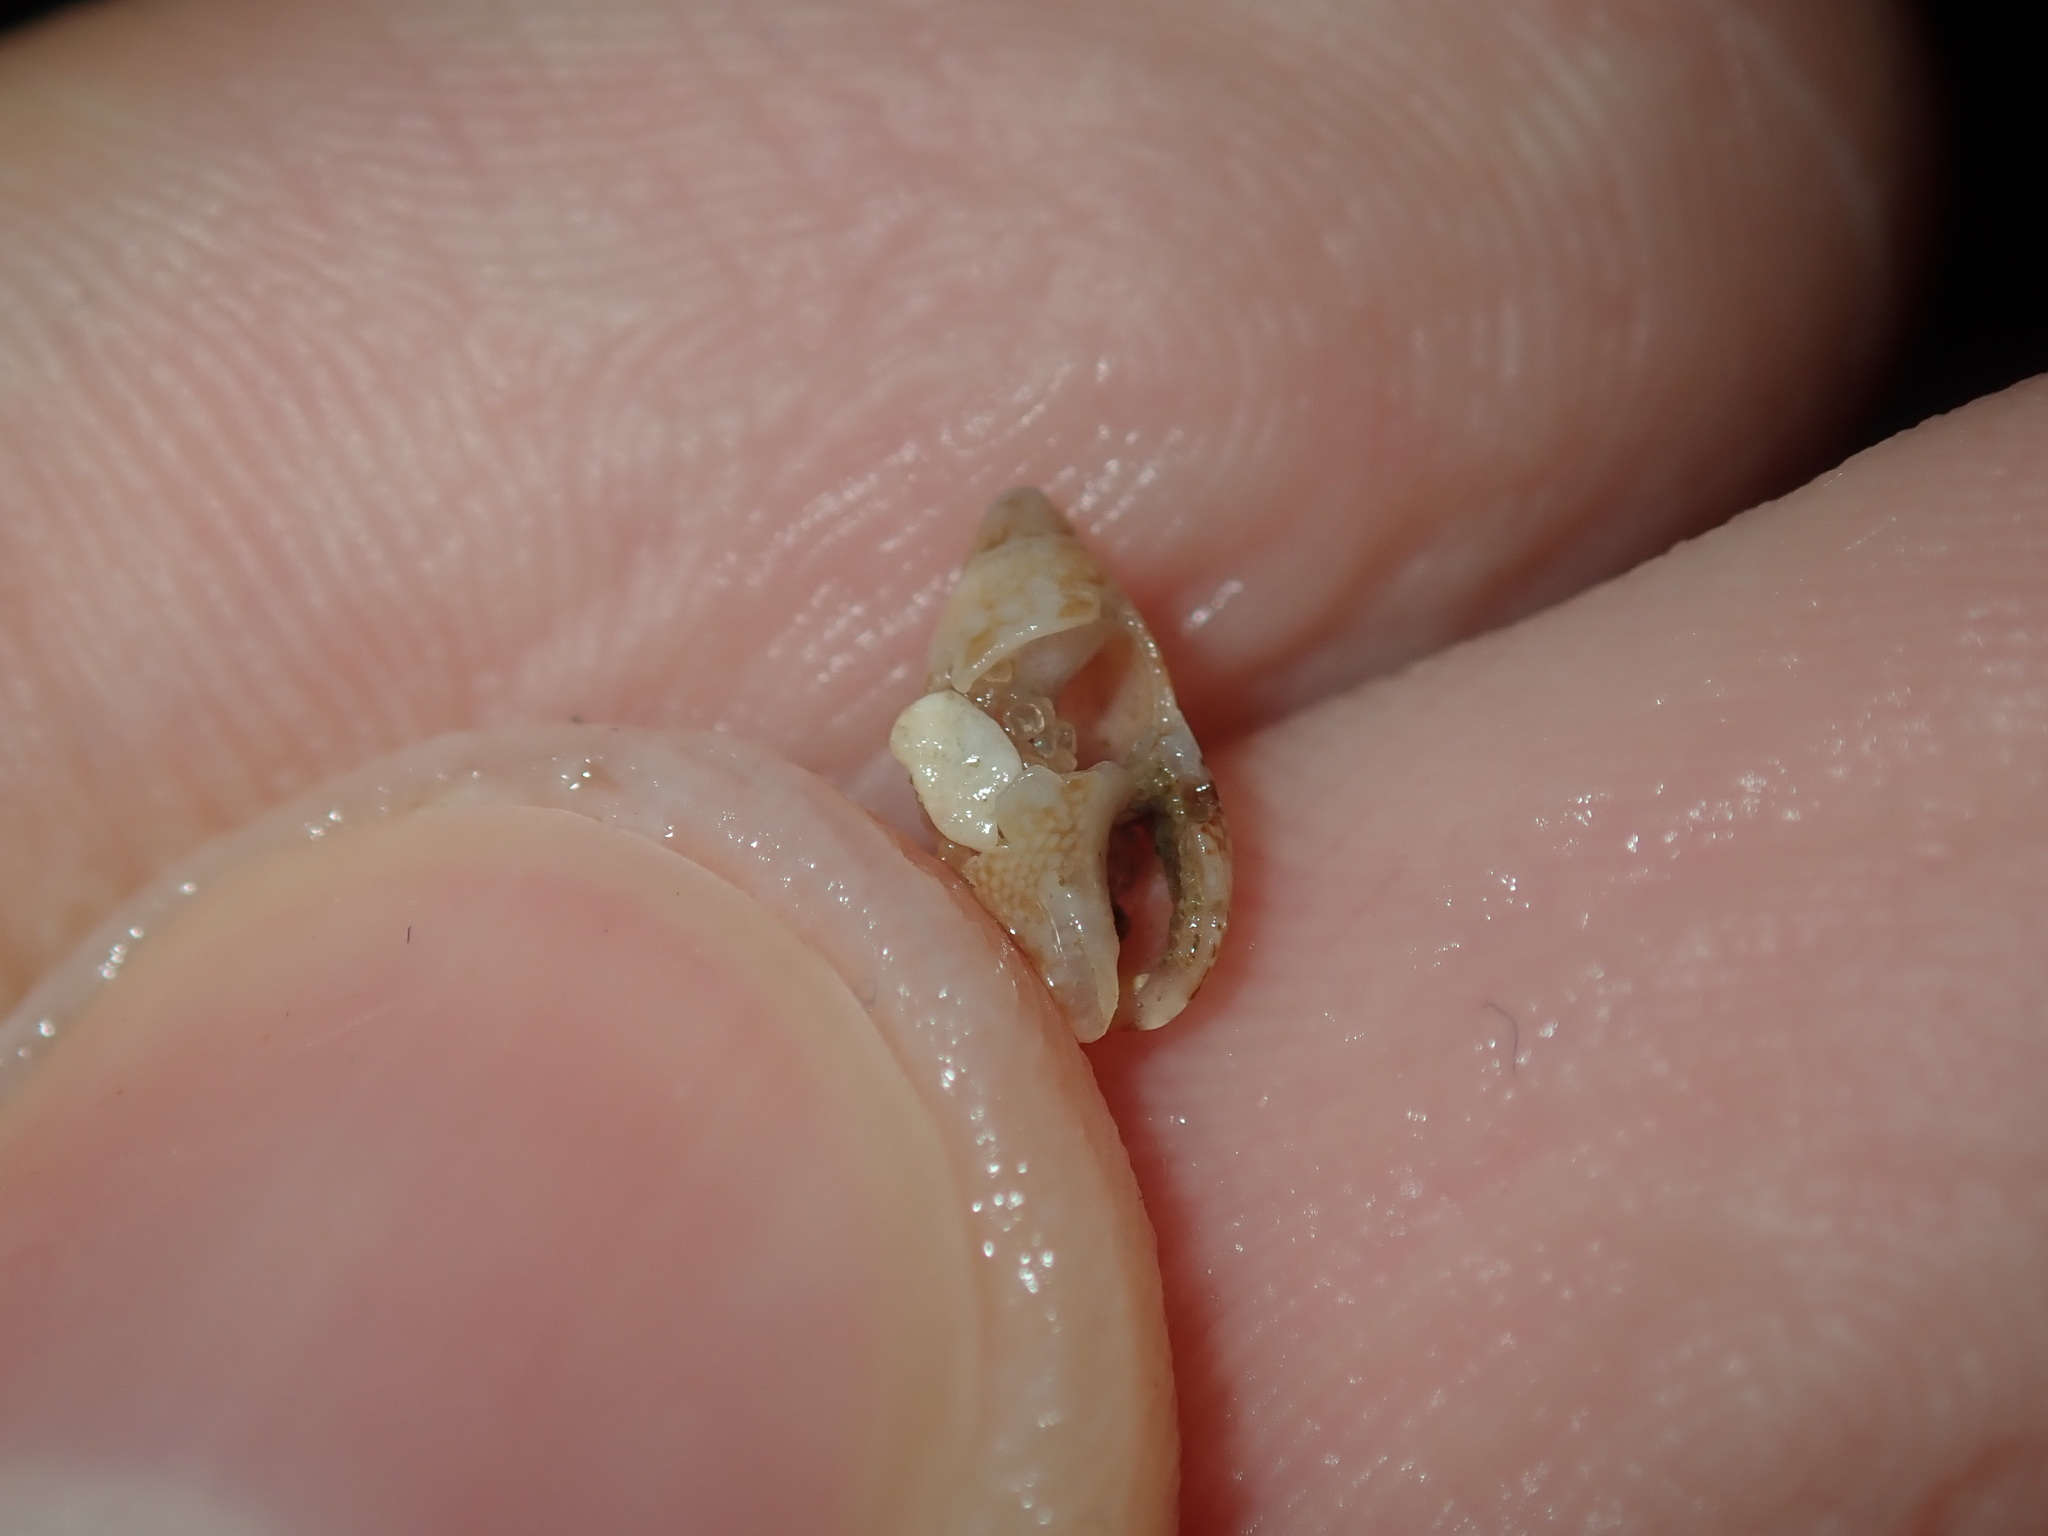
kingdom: Animalia
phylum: Mollusca
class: Gastropoda
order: Neogastropoda
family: Columbellidae
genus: Mitrella
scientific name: Mitrella bicincta
